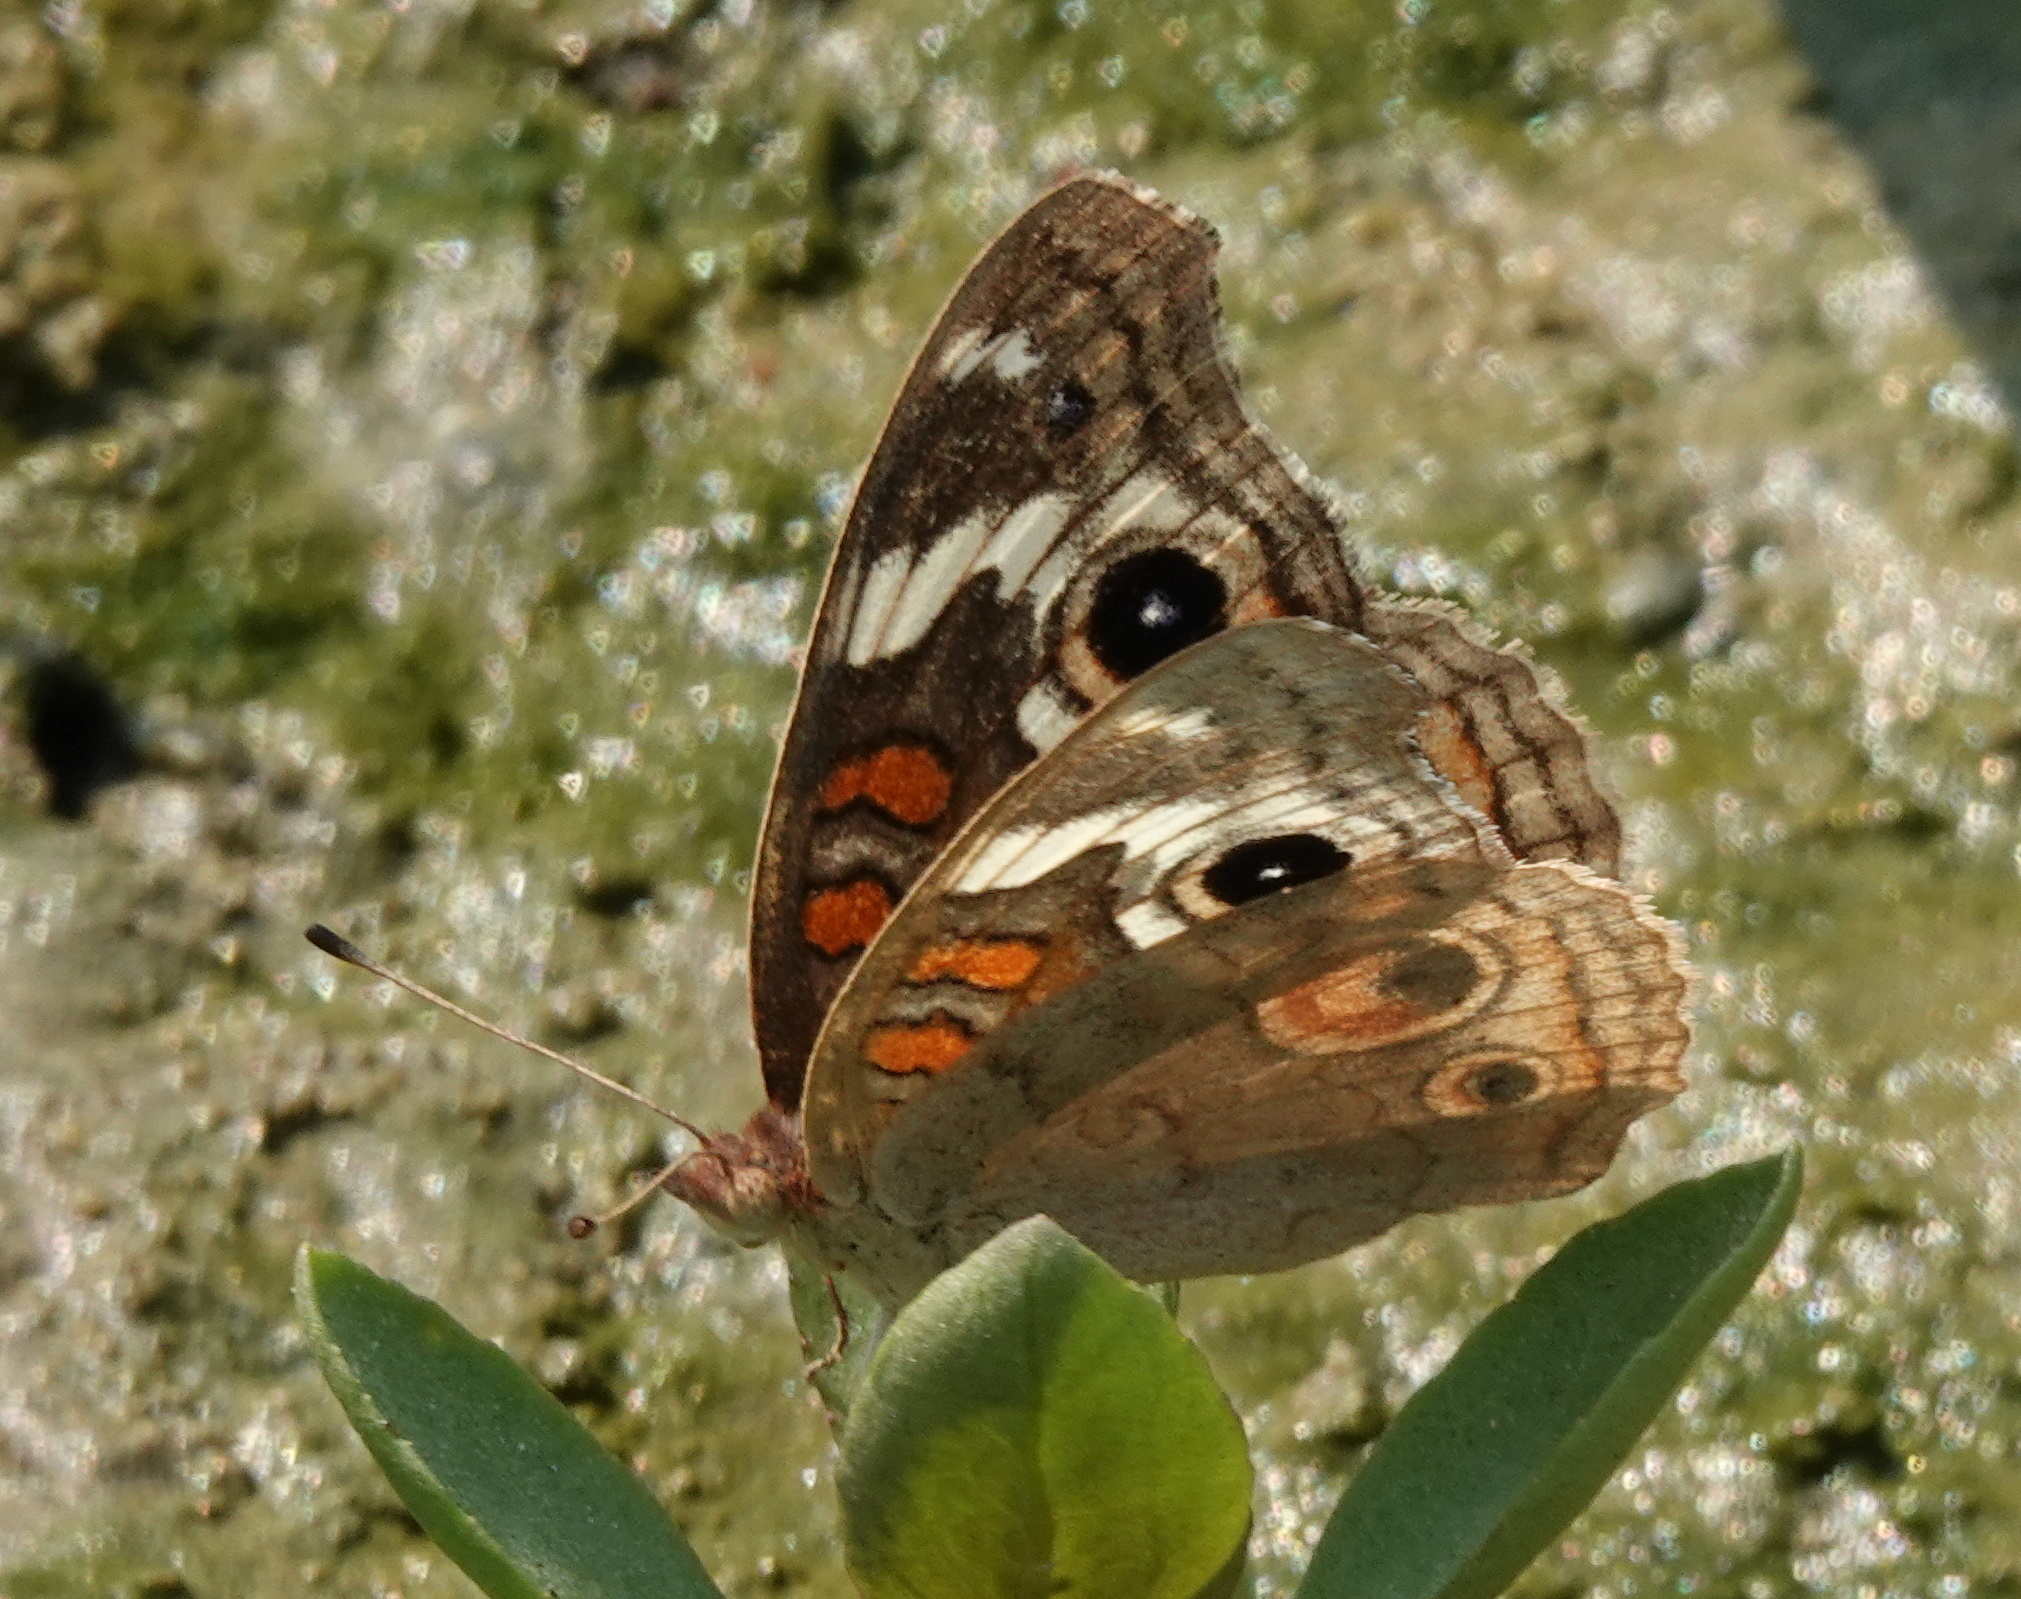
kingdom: Animalia
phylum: Arthropoda
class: Insecta
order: Lepidoptera
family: Nymphalidae
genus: Junonia
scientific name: Junonia grisea
